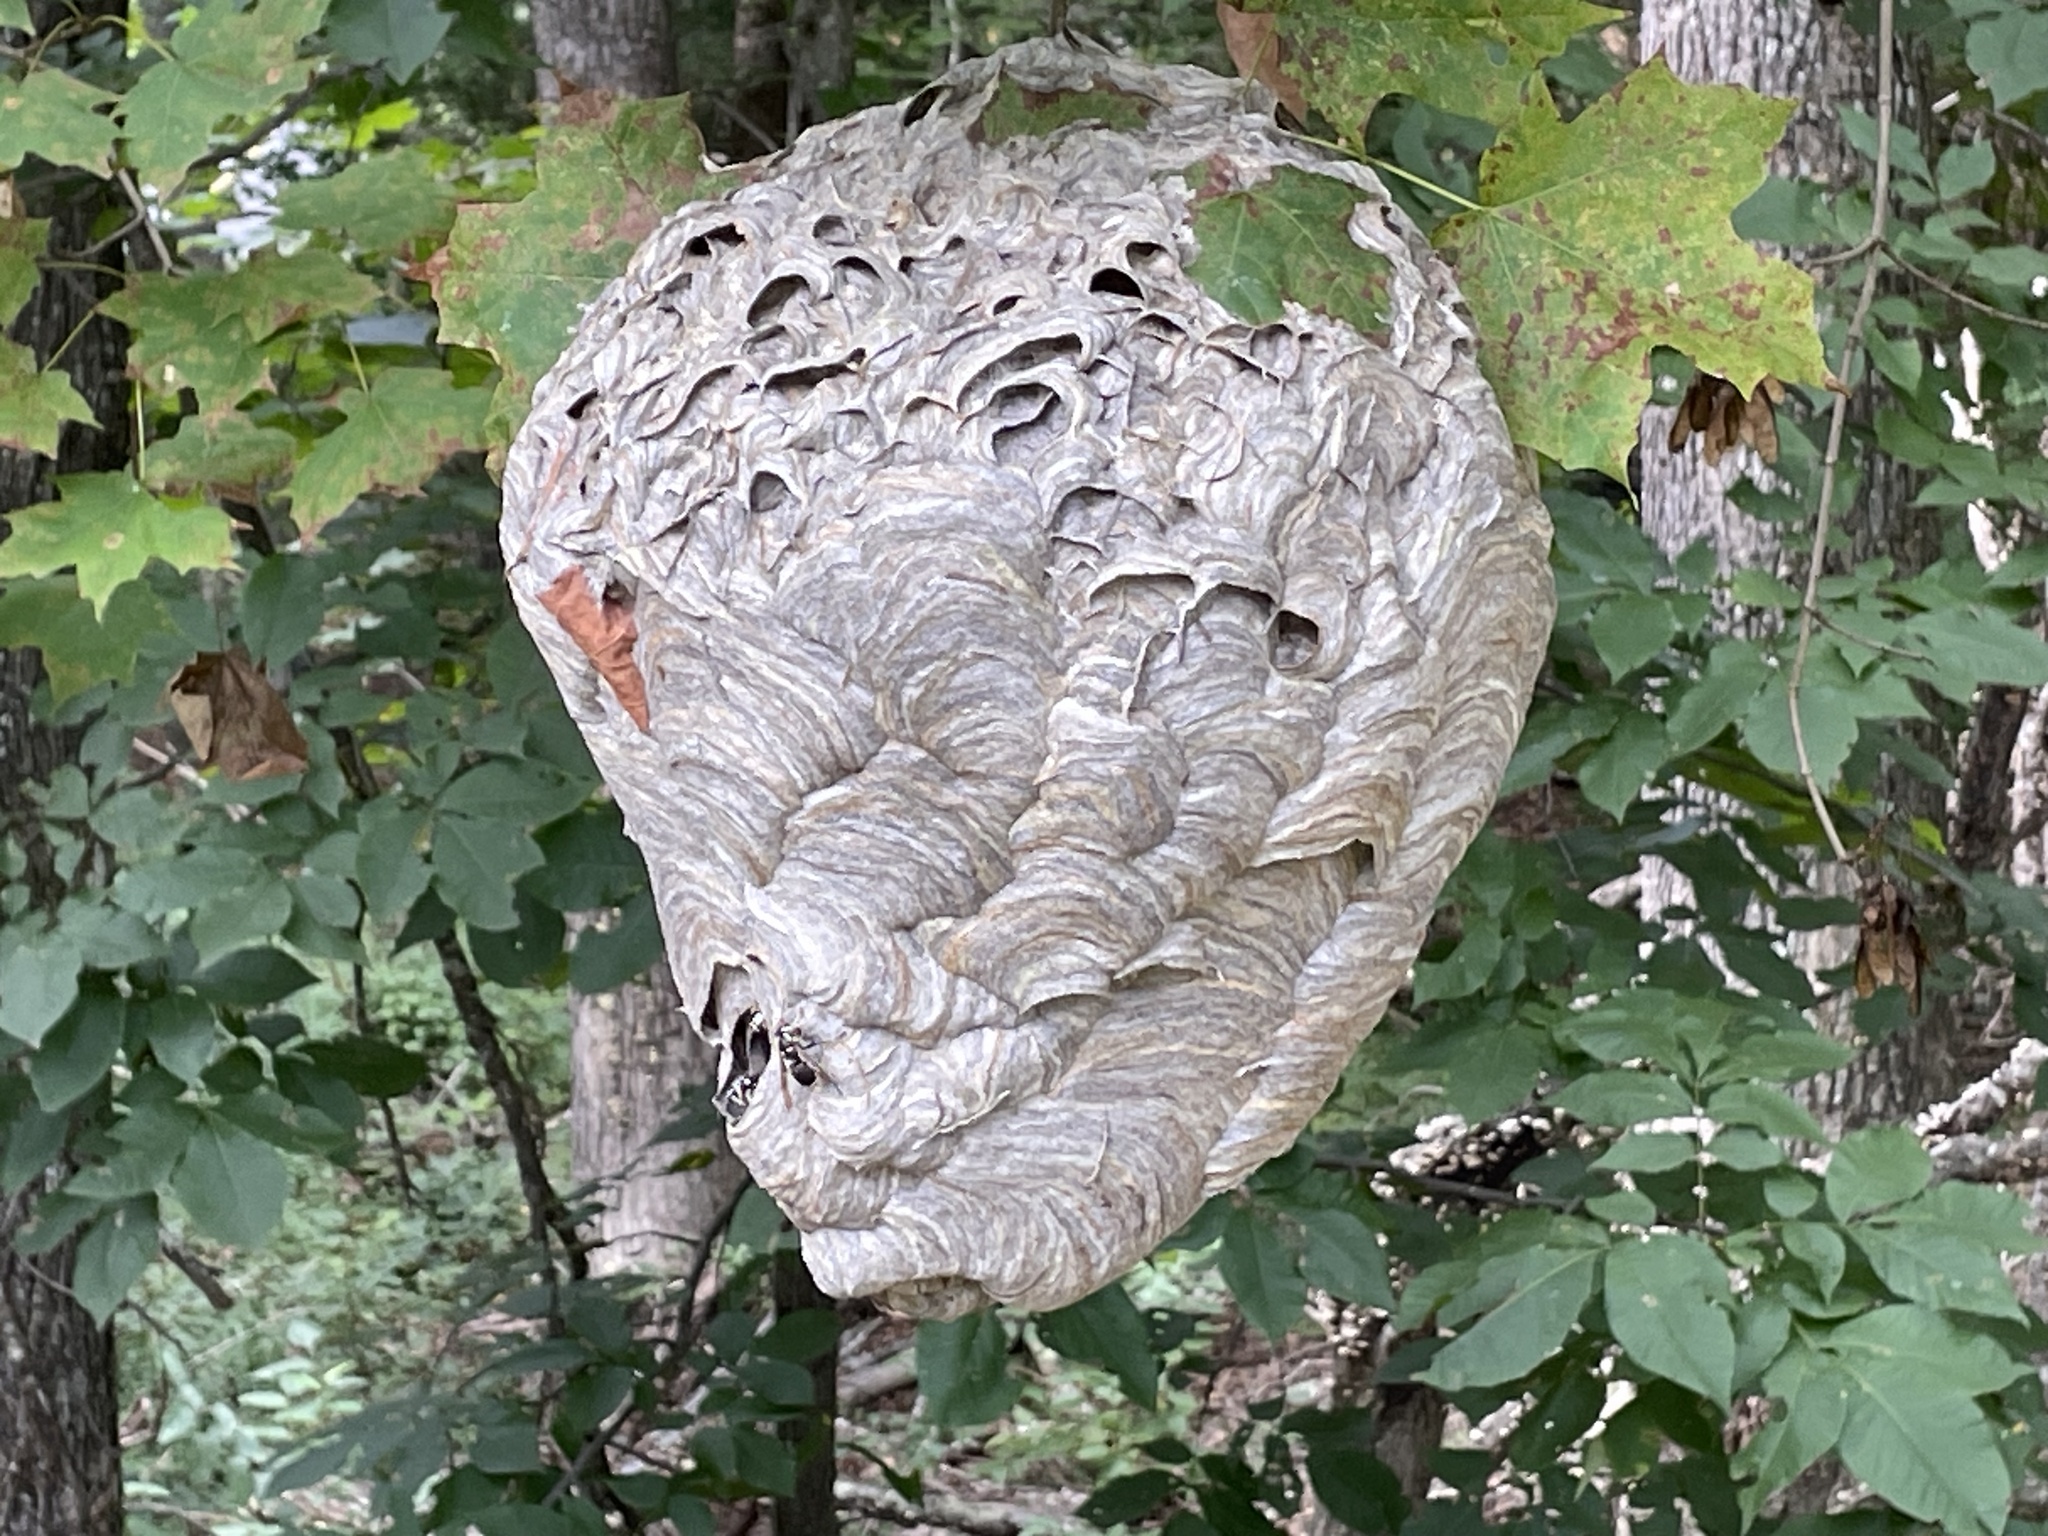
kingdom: Animalia
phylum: Arthropoda
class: Insecta
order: Hymenoptera
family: Vespidae
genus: Dolichovespula
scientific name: Dolichovespula maculata
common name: Bald-faced hornet
